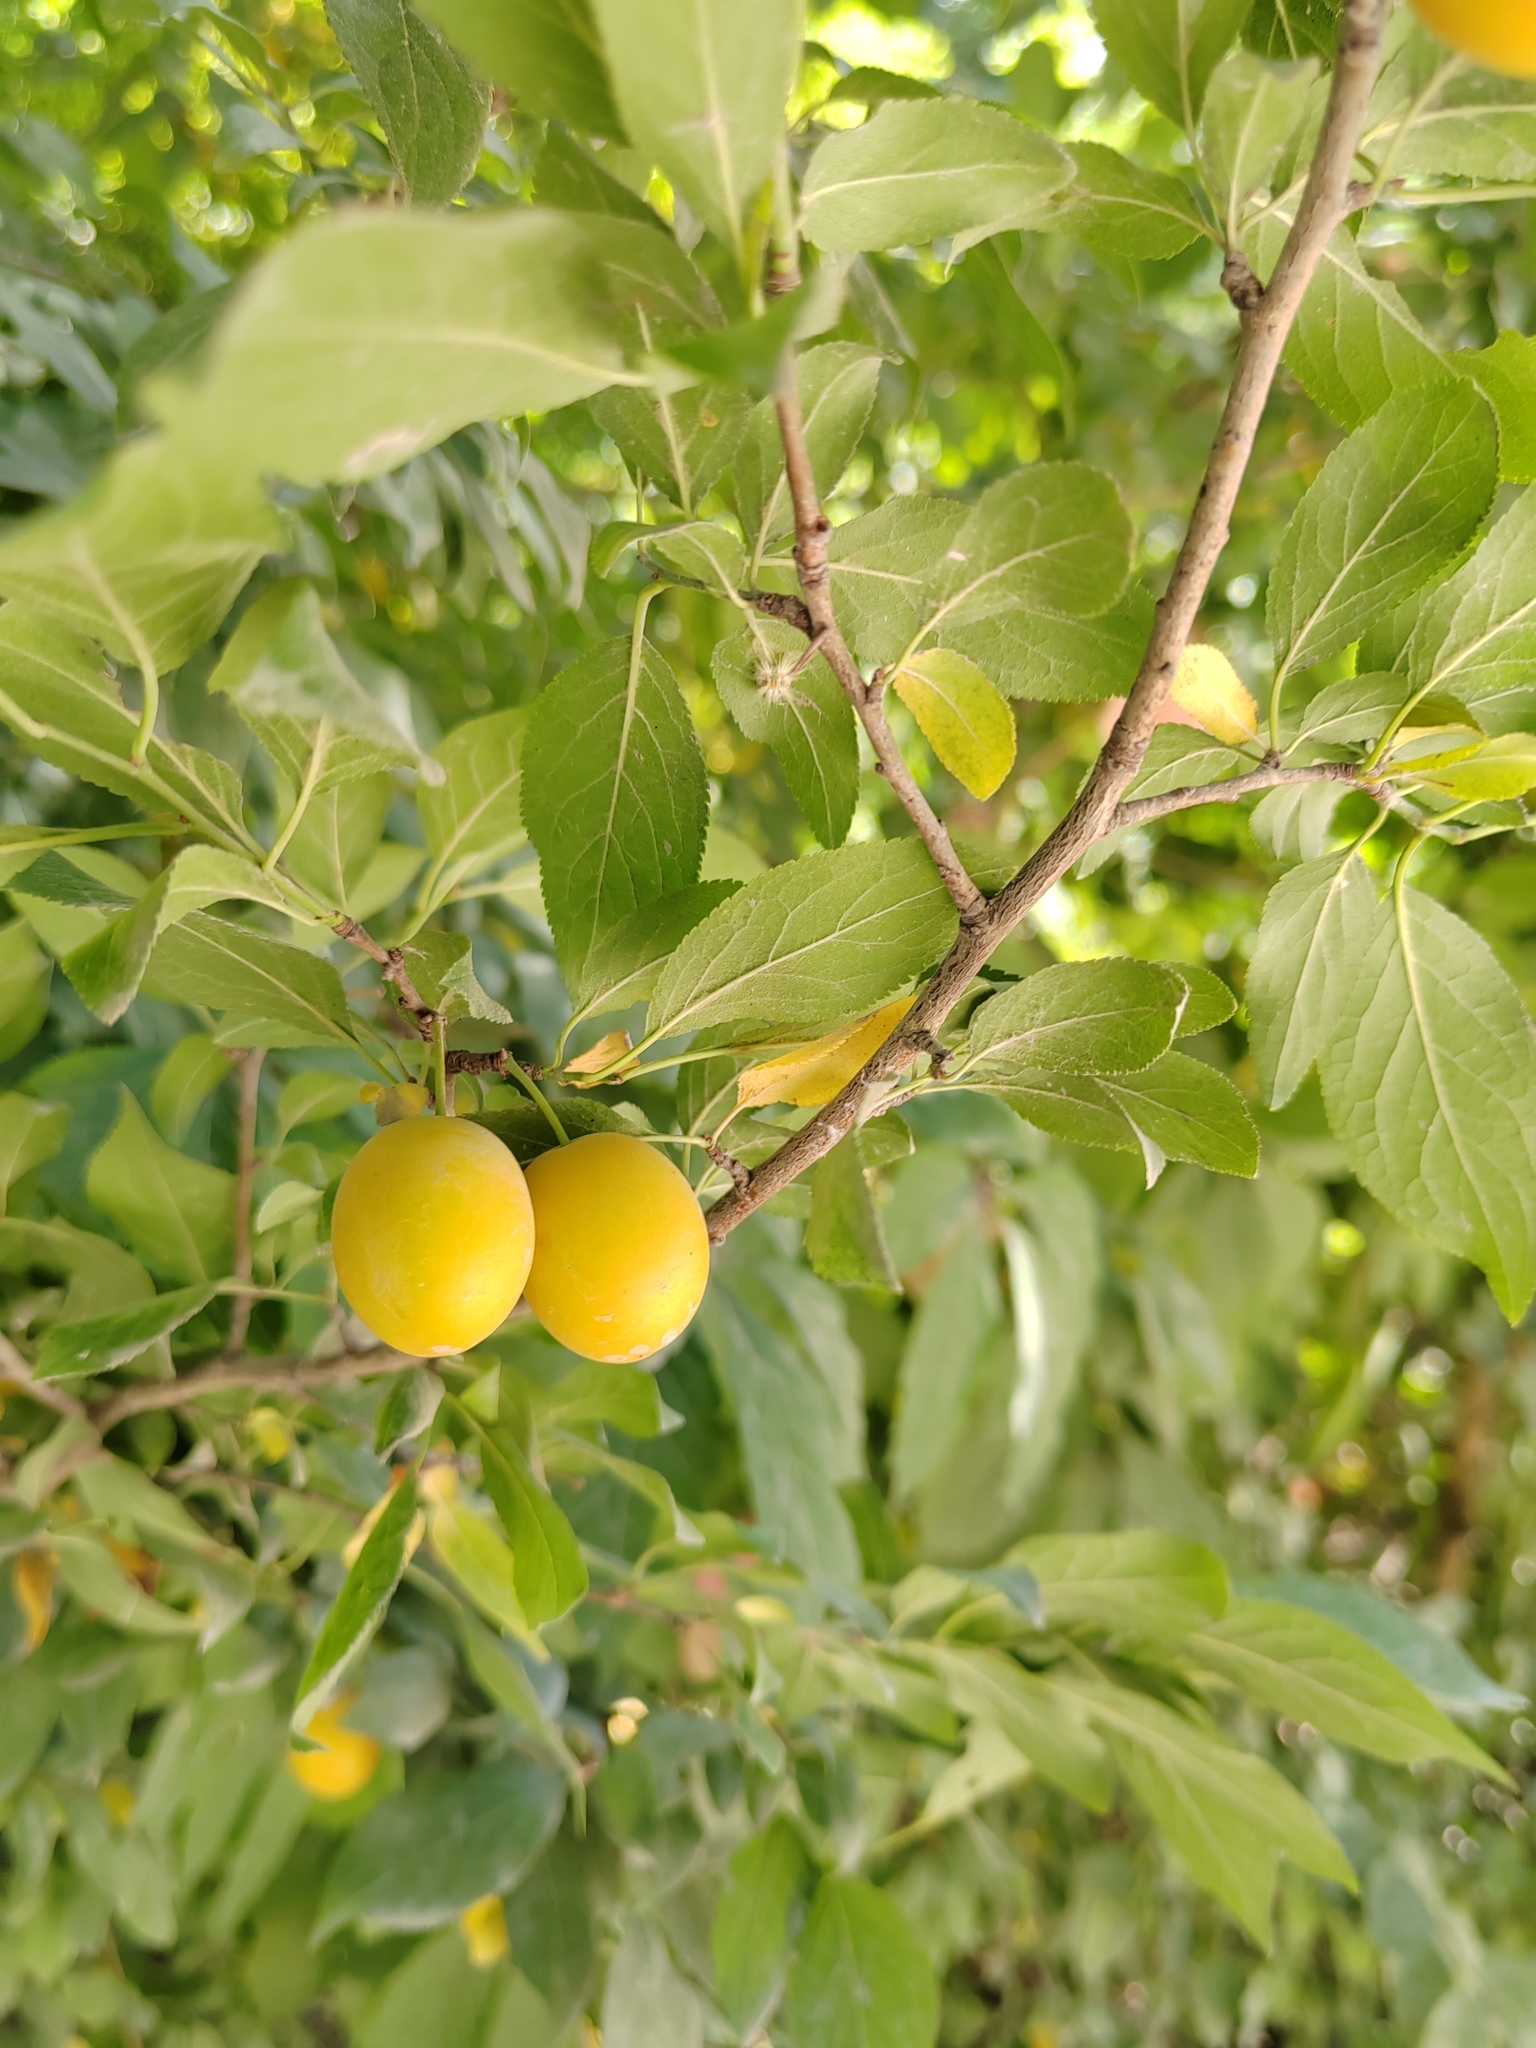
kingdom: Plantae
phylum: Tracheophyta
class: Magnoliopsida
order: Rosales
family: Rosaceae
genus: Prunus
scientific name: Prunus cerasifera
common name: Cherry plum
